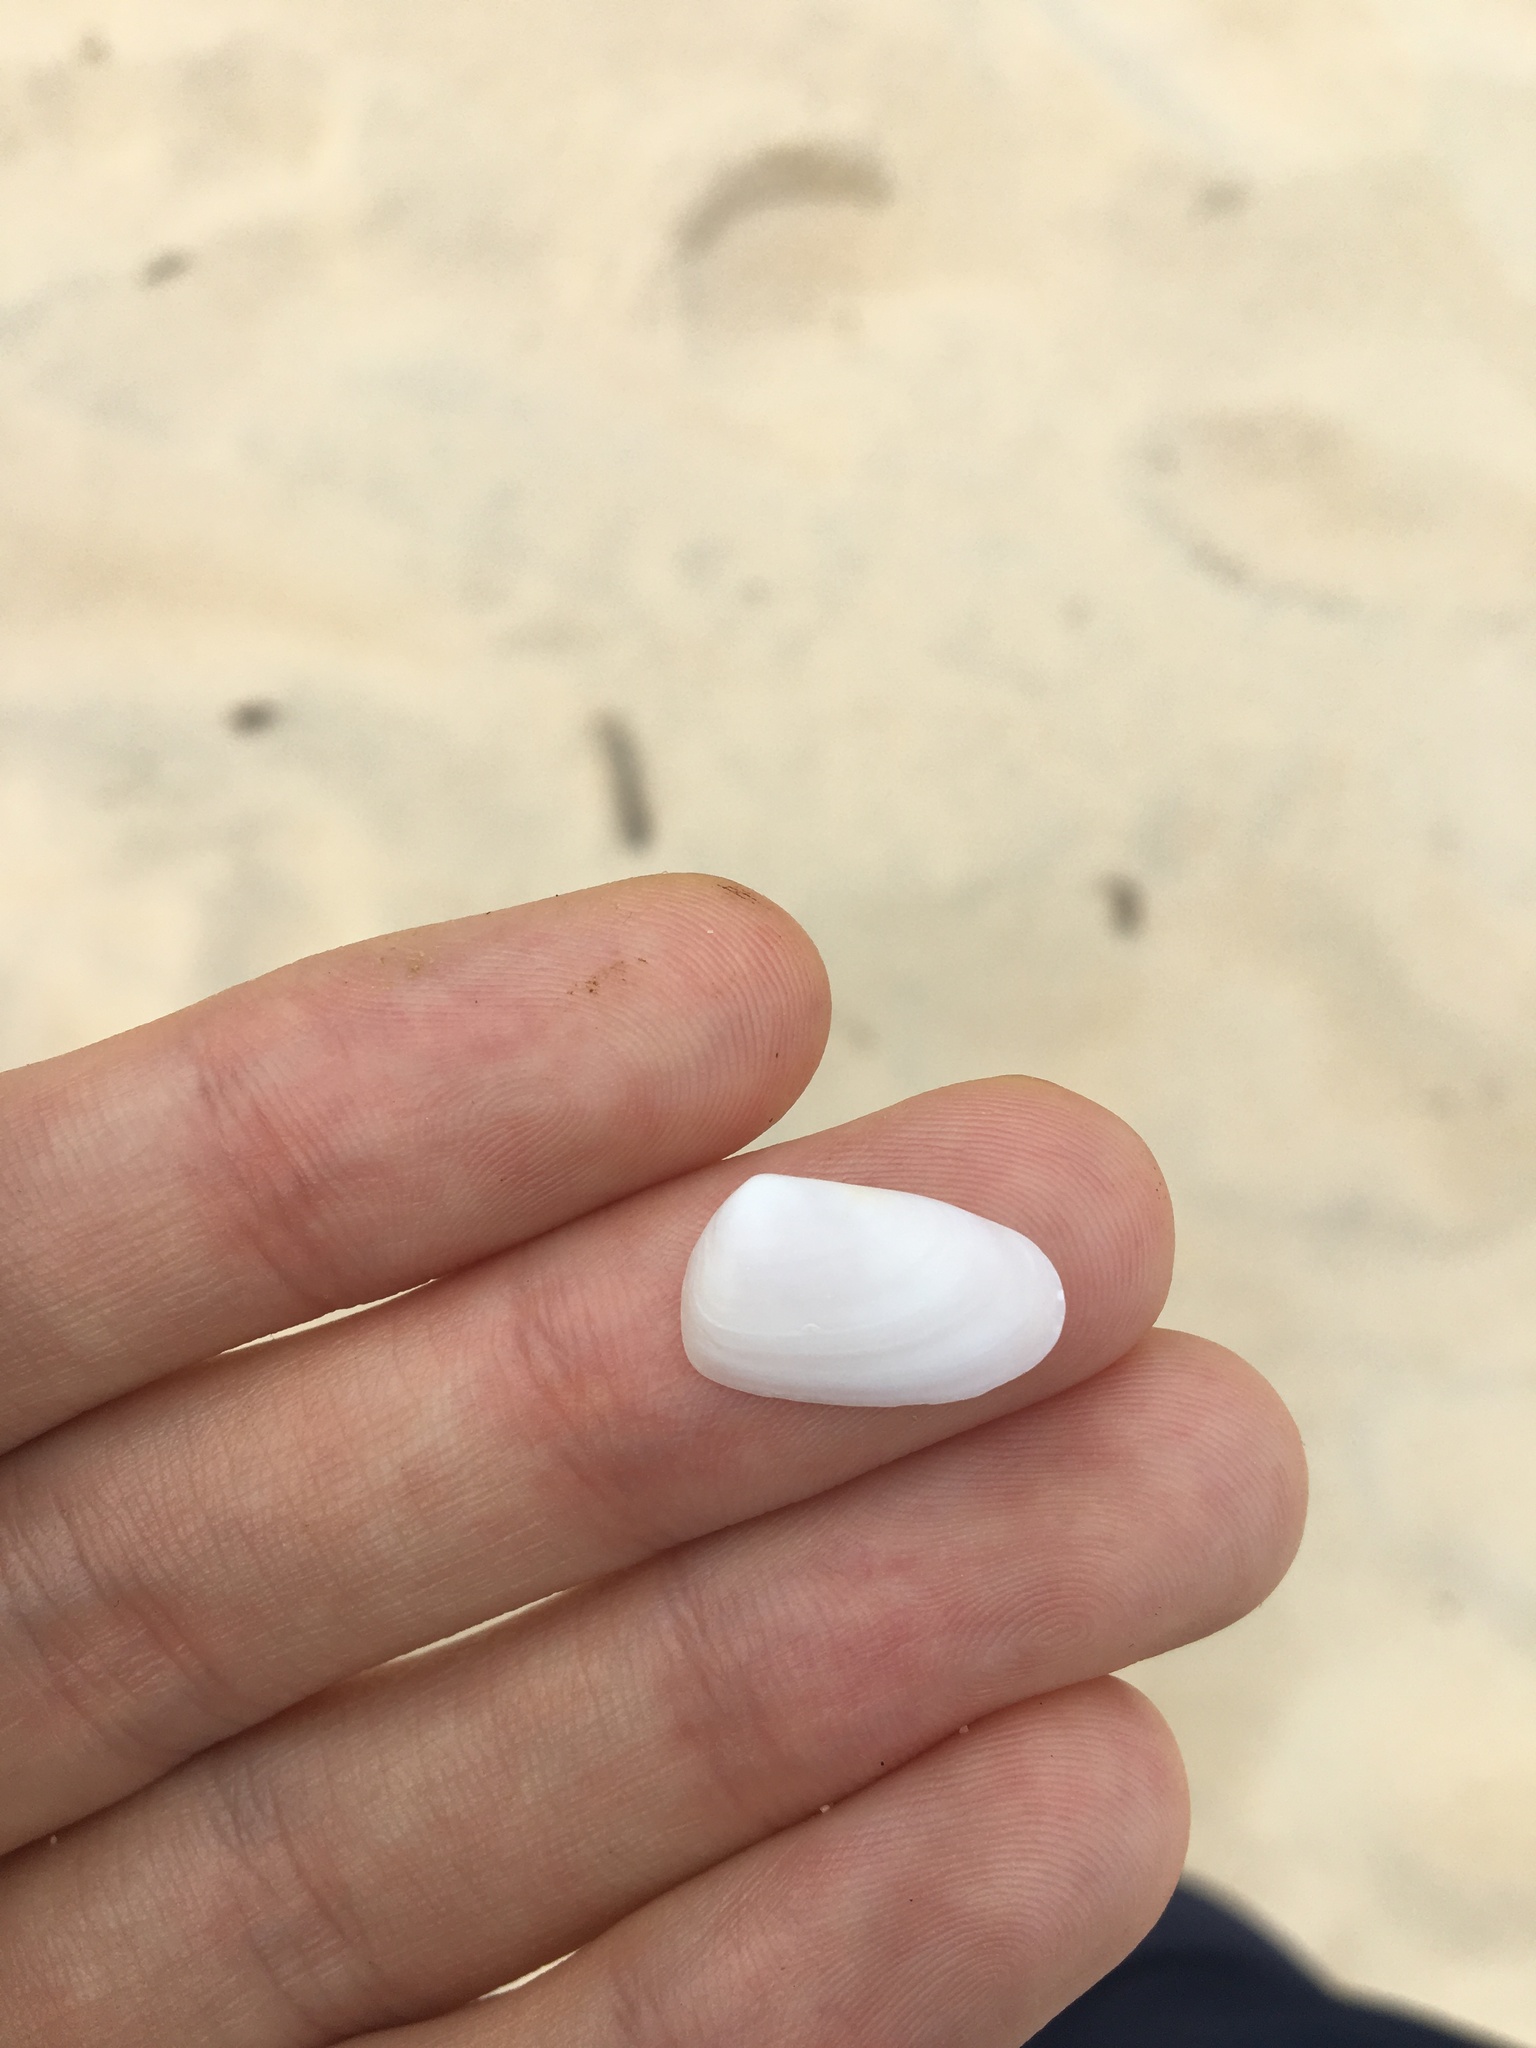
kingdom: Animalia
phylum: Mollusca
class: Bivalvia
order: Venerida
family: Mesodesmatidae
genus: Paphies
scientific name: Paphies angusta
